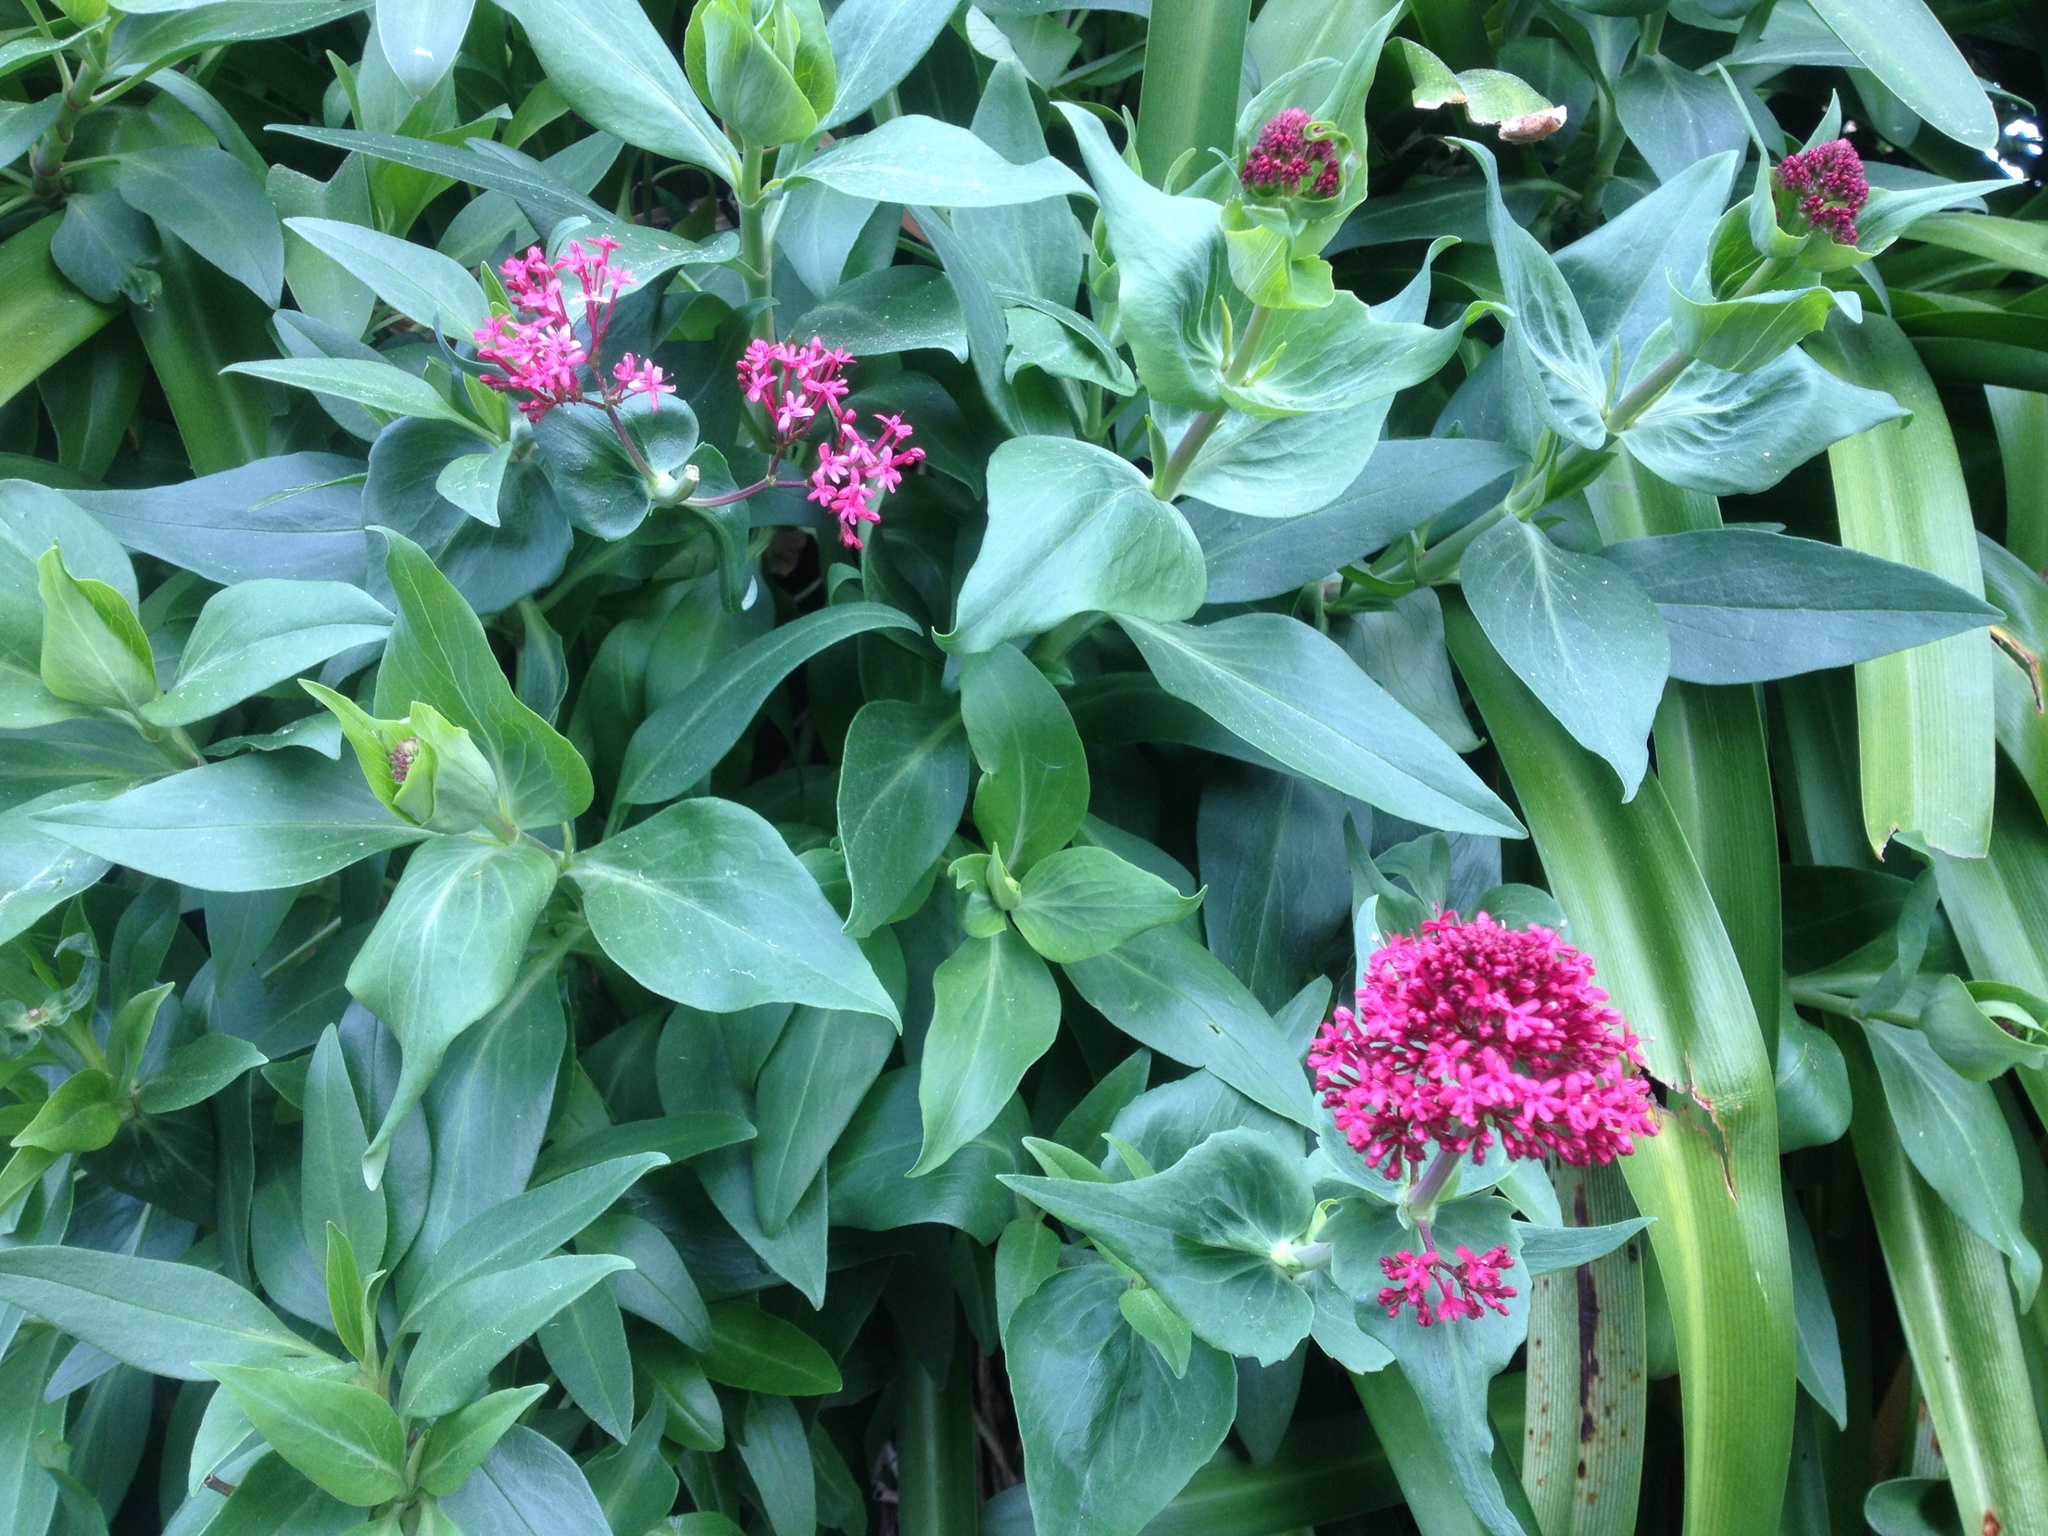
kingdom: Plantae
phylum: Tracheophyta
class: Magnoliopsida
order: Dipsacales
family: Caprifoliaceae
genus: Centranthus
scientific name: Centranthus ruber
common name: Red valerian
